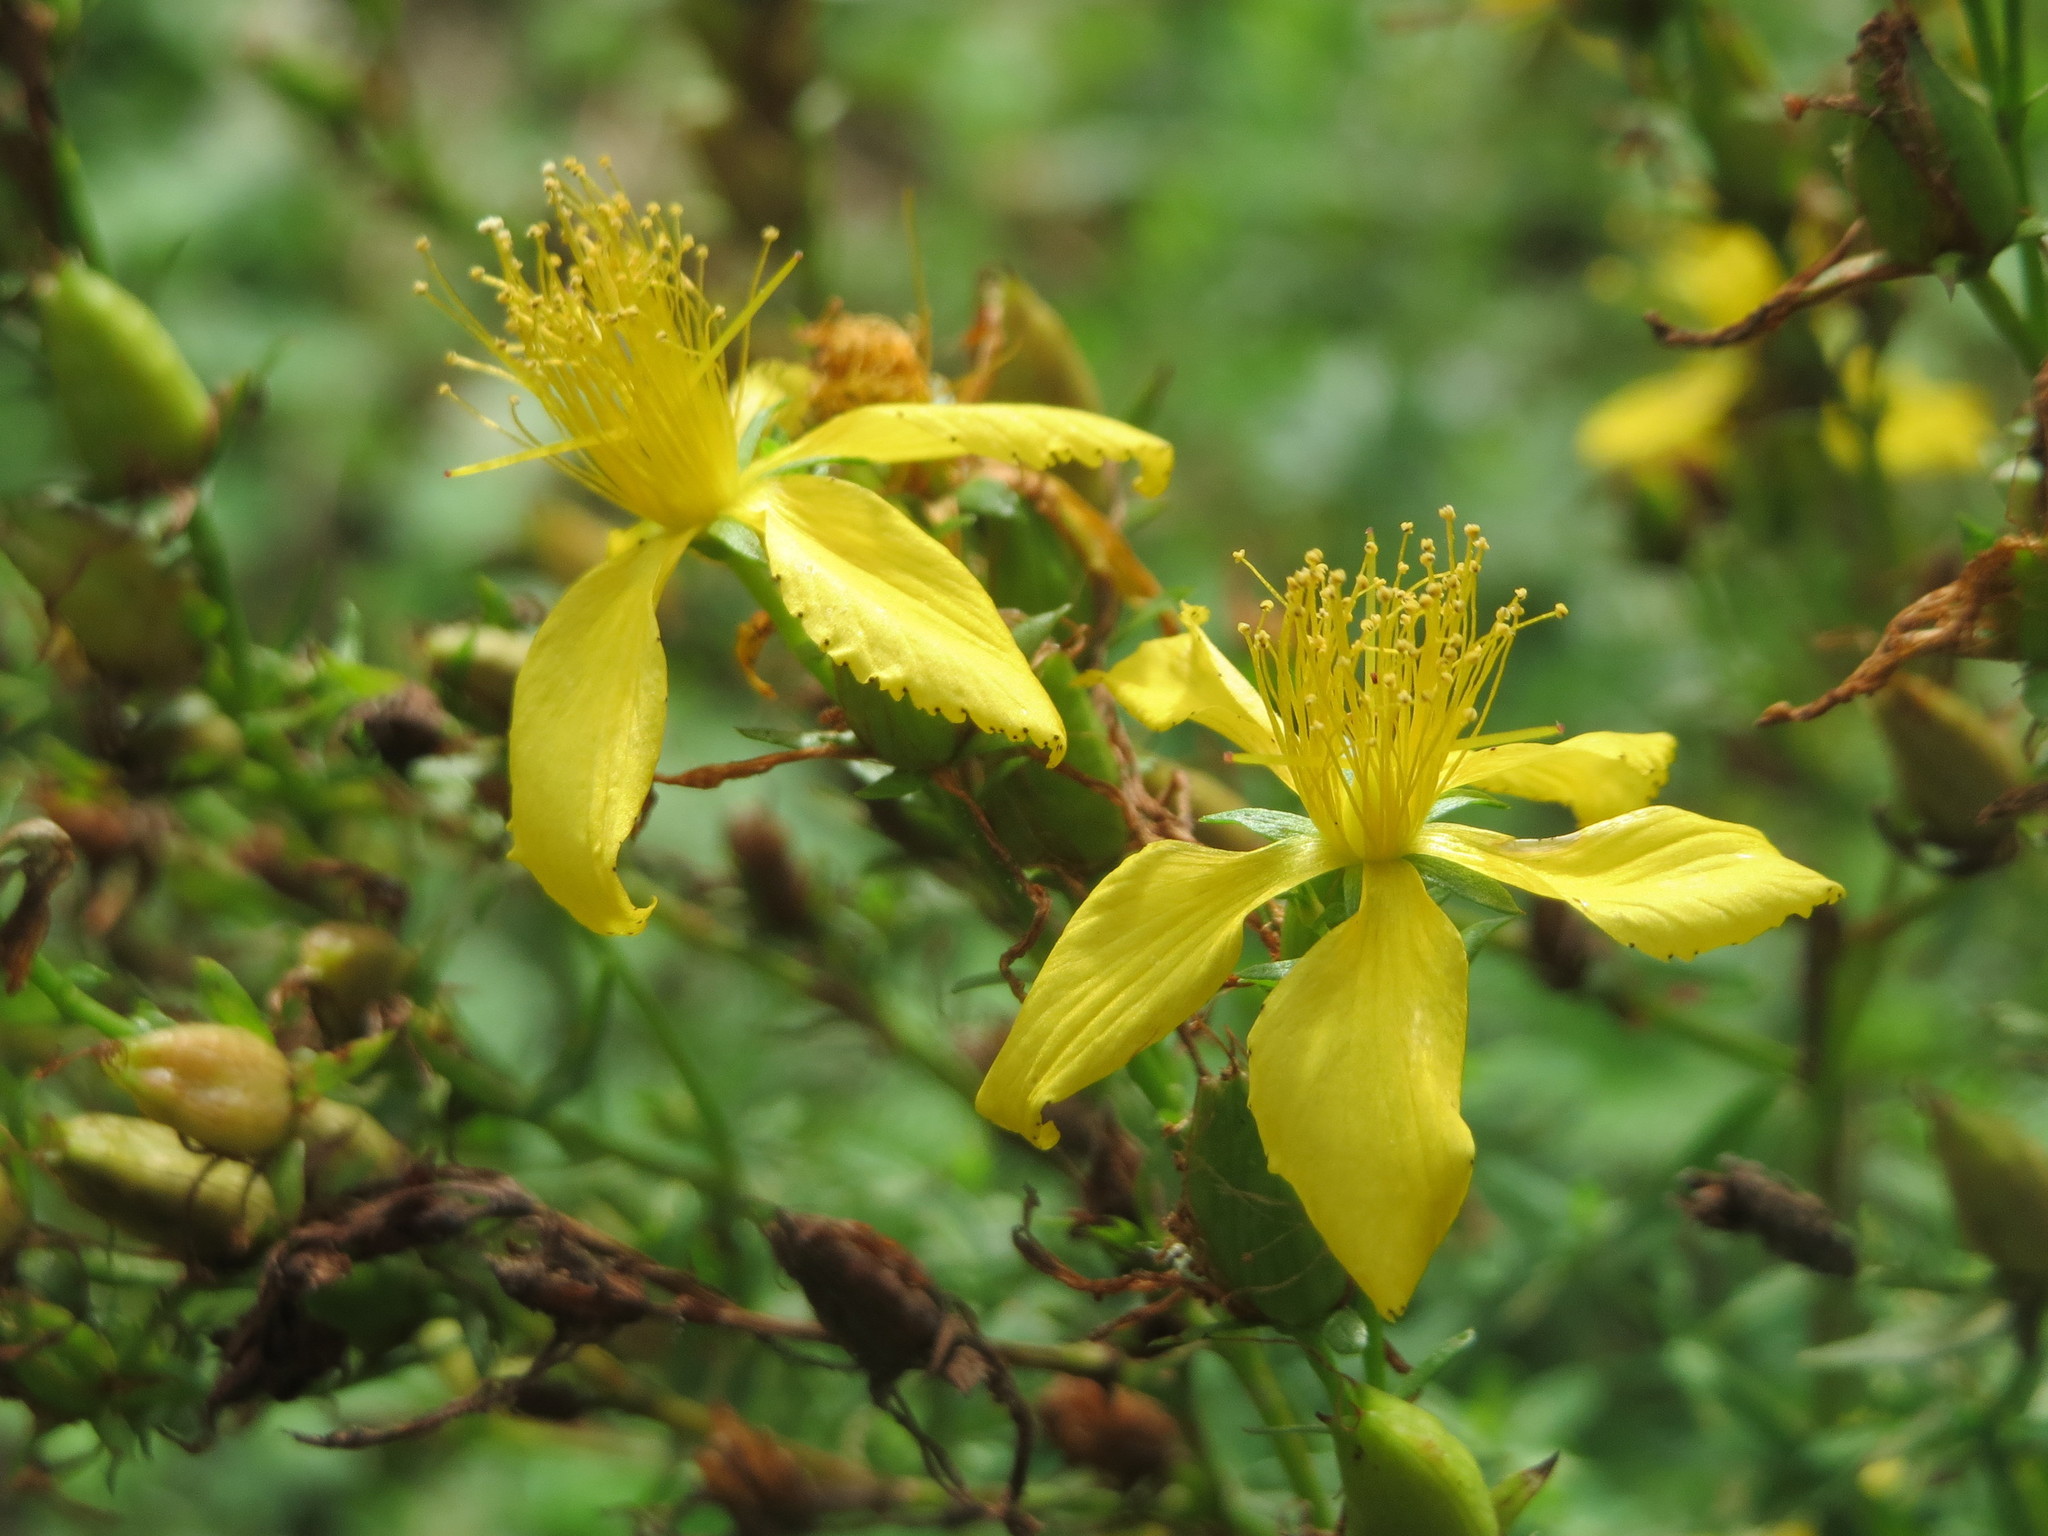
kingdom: Plantae
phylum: Tracheophyta
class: Magnoliopsida
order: Malpighiales
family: Hypericaceae
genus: Hypericum
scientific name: Hypericum perforatum
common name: Common st. johnswort
